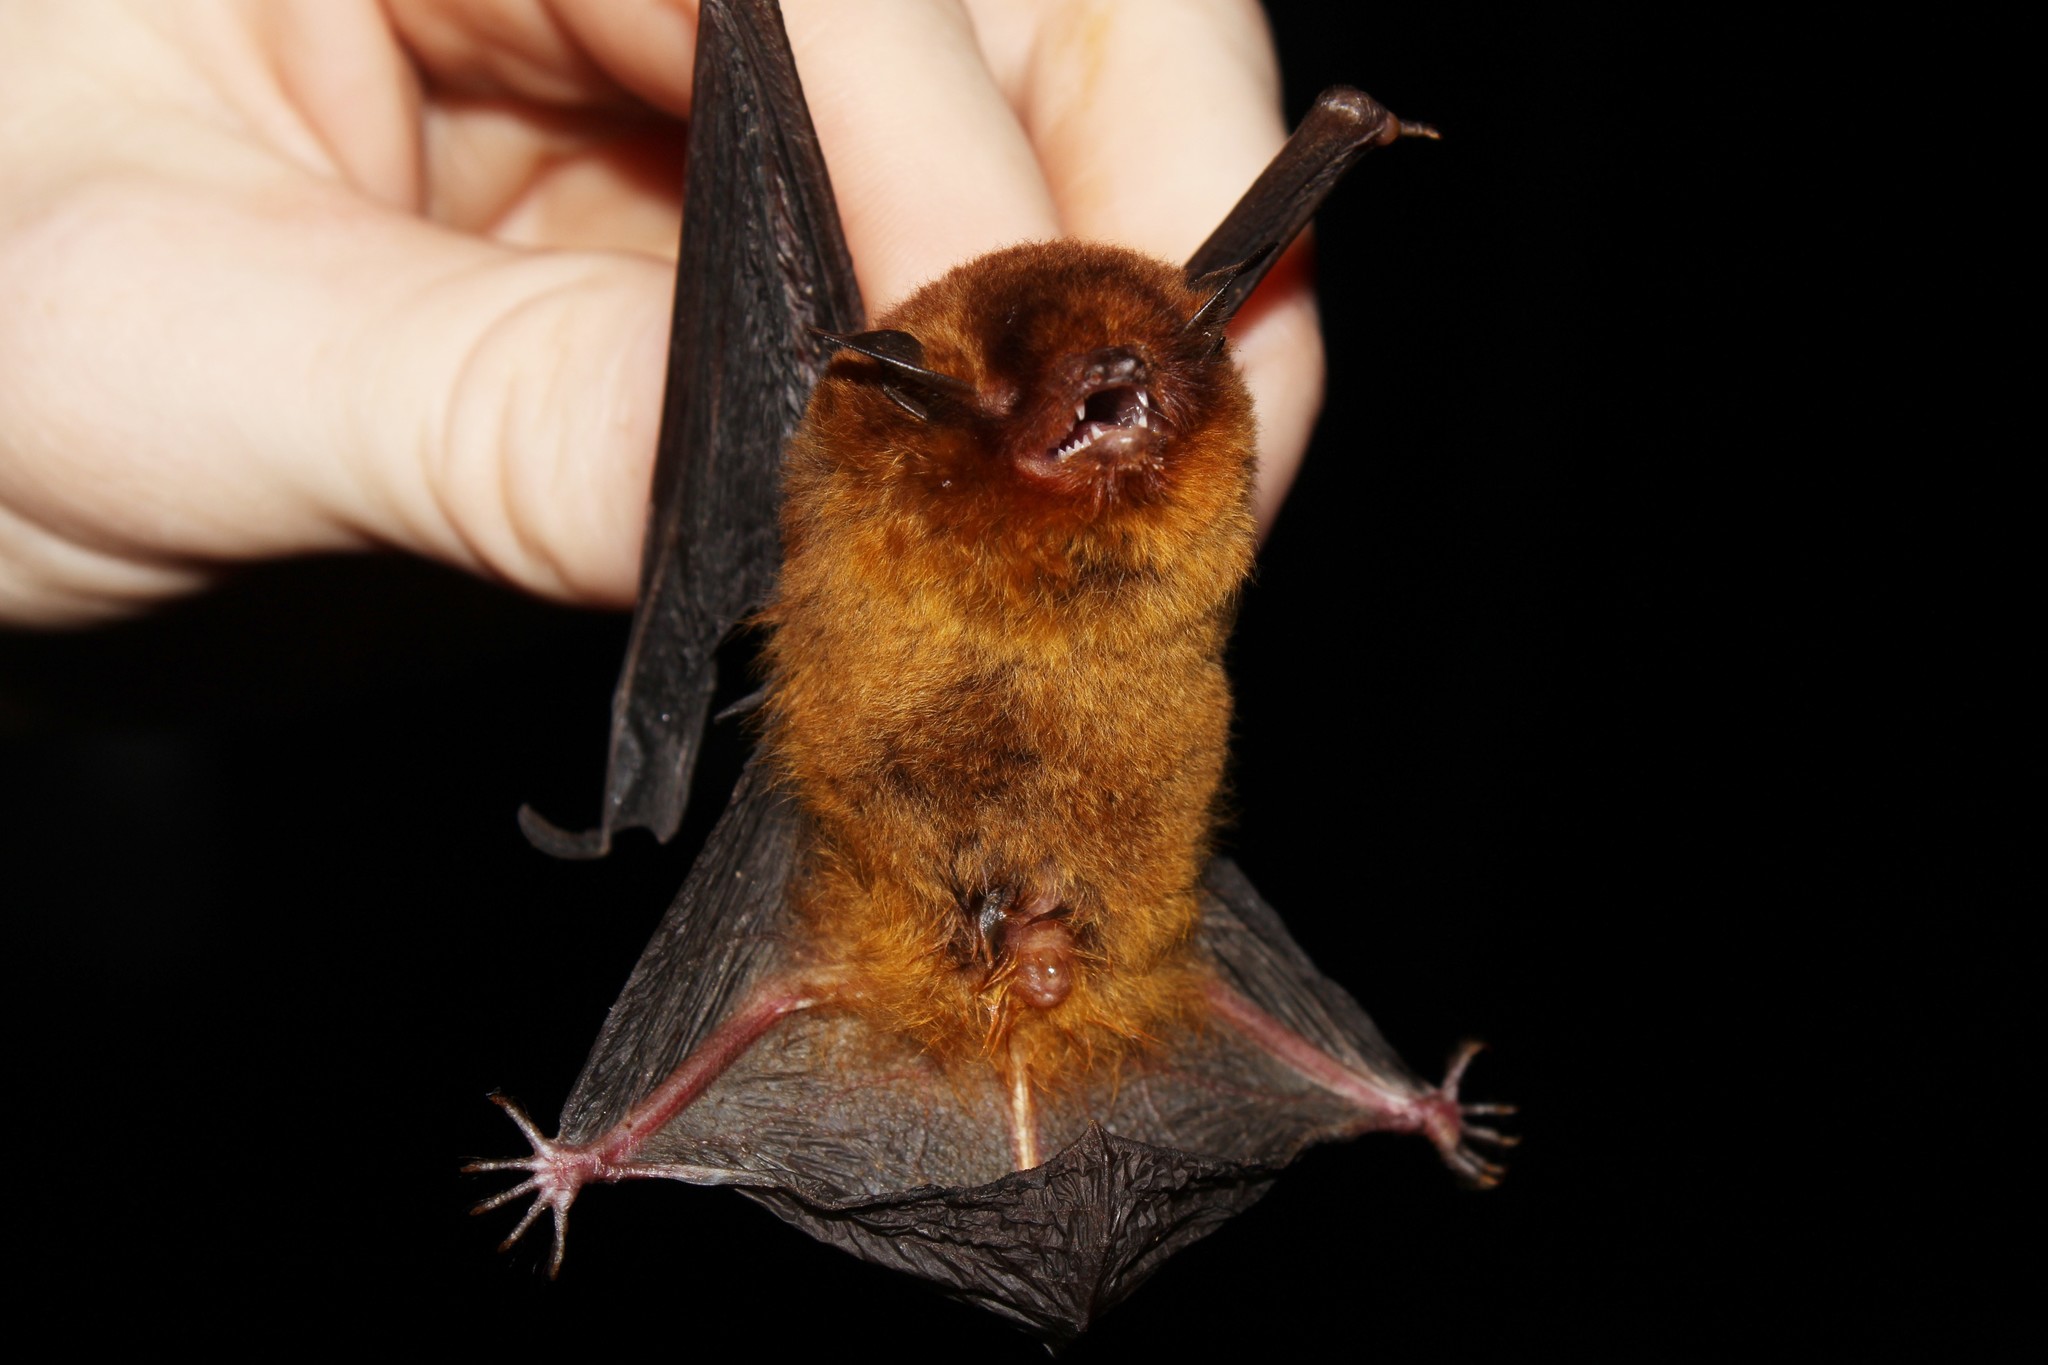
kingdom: Animalia
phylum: Chordata
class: Mammalia
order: Chiroptera
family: Vespertilionidae
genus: Myotis
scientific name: Myotis ruber
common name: Red myotis
